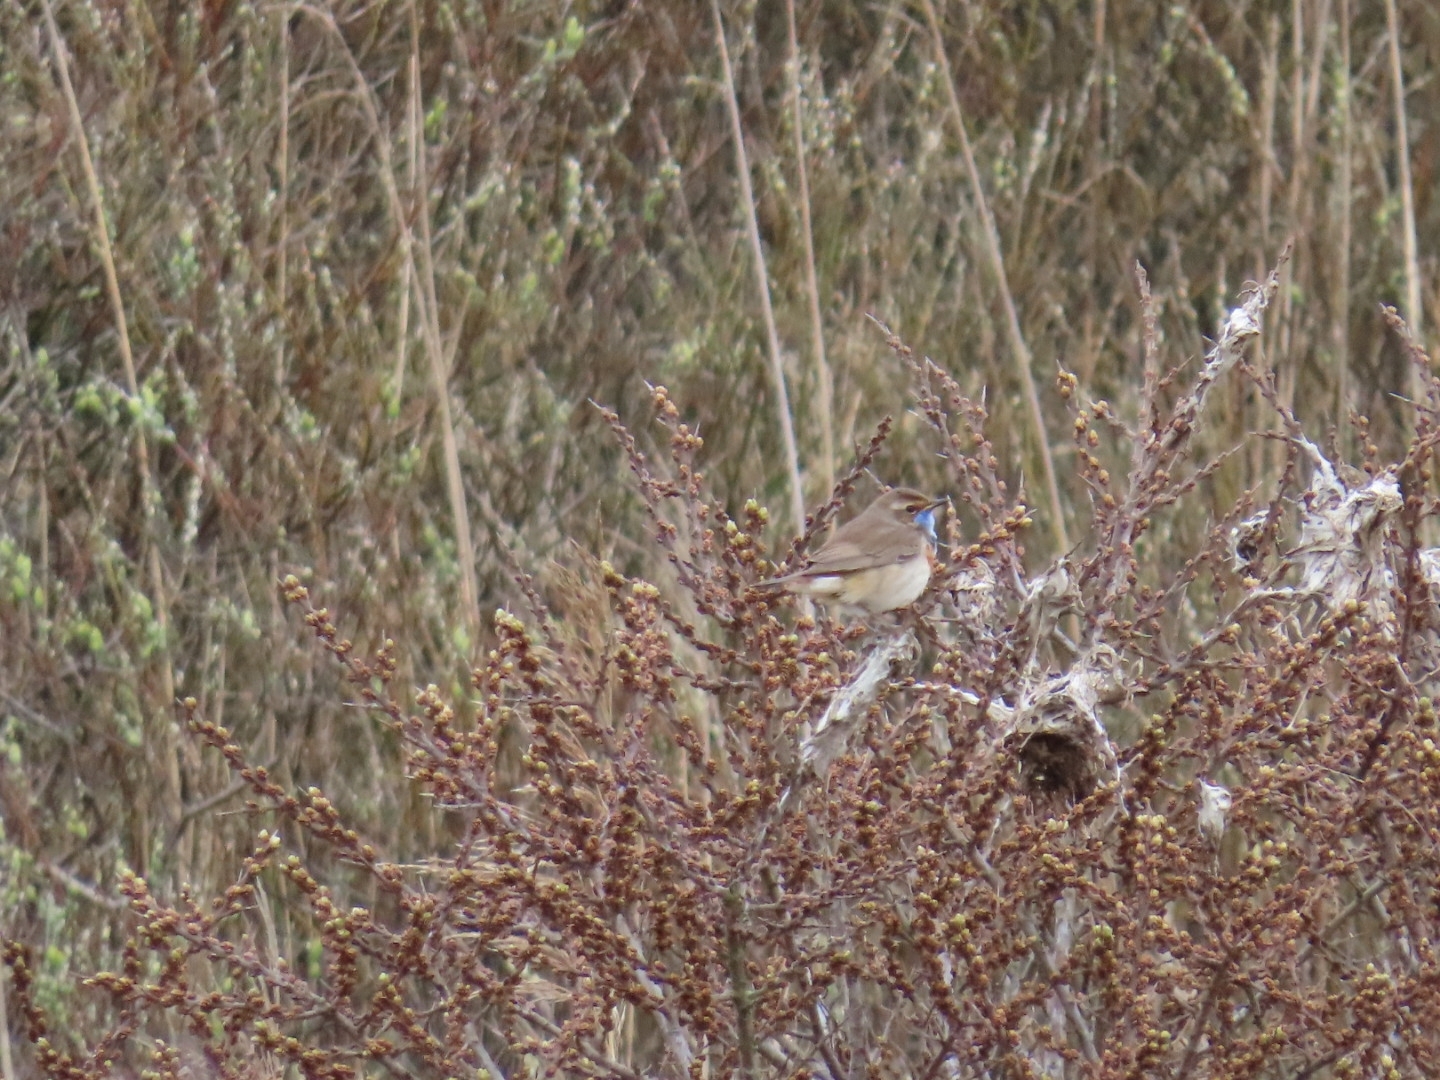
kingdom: Animalia
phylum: Chordata
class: Aves
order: Passeriformes
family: Muscicapidae
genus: Luscinia
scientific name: Luscinia svecica
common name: Bluethroat
